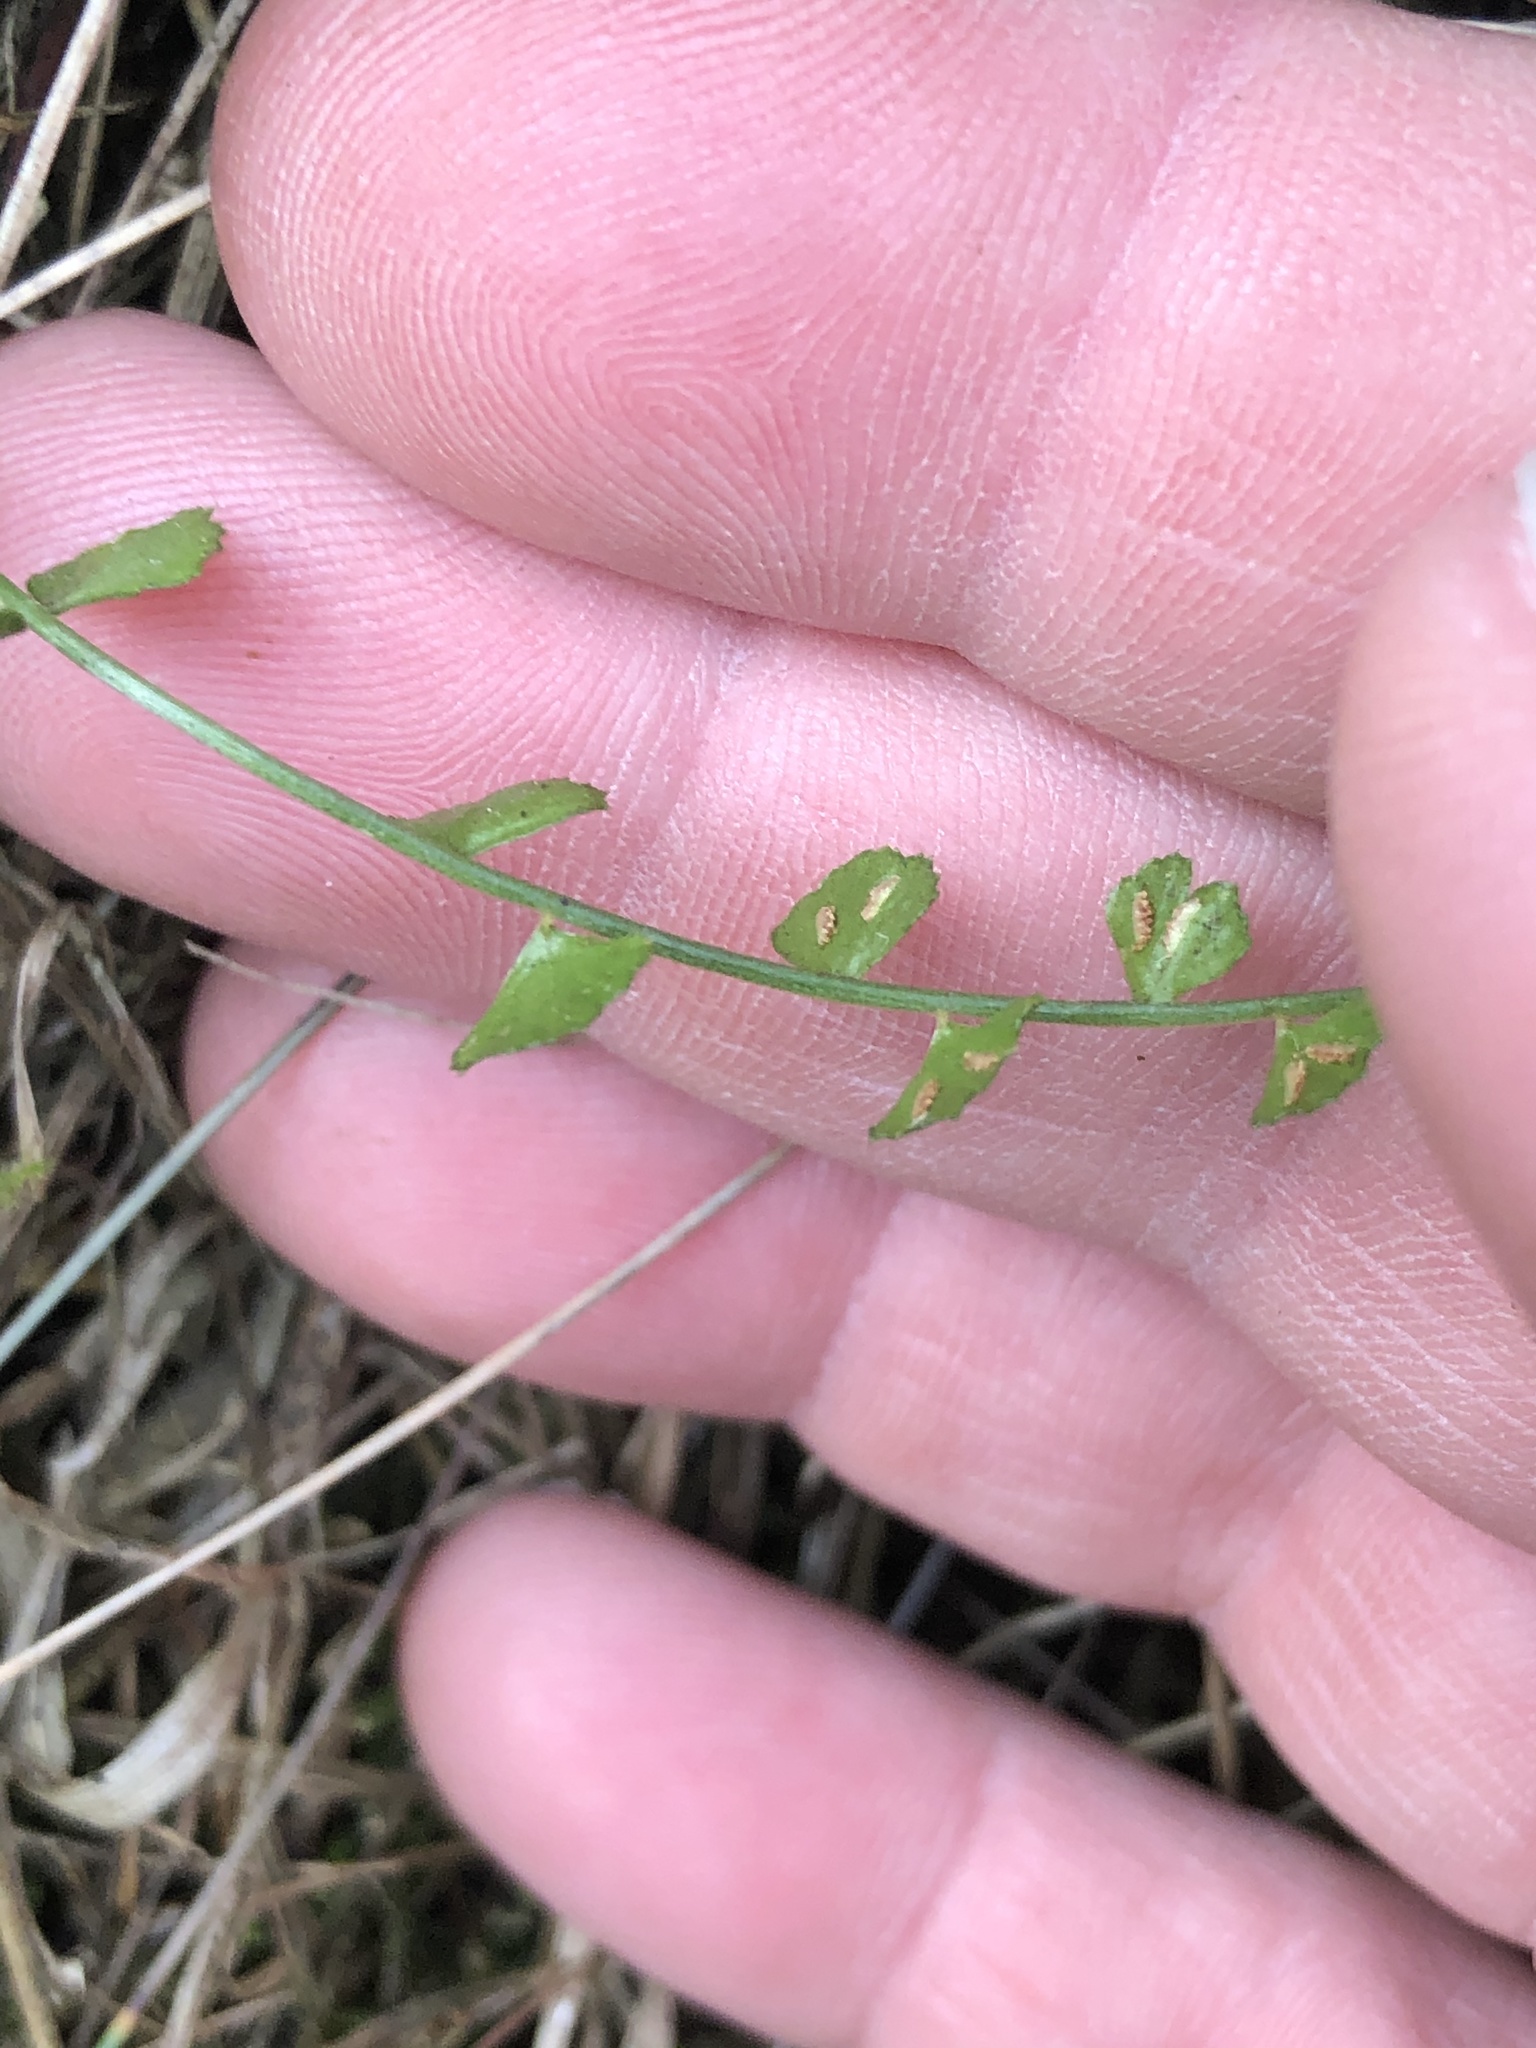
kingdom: Plantae
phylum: Tracheophyta
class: Polypodiopsida
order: Polypodiales
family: Aspleniaceae
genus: Asplenium
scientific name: Asplenium flabellifolium
